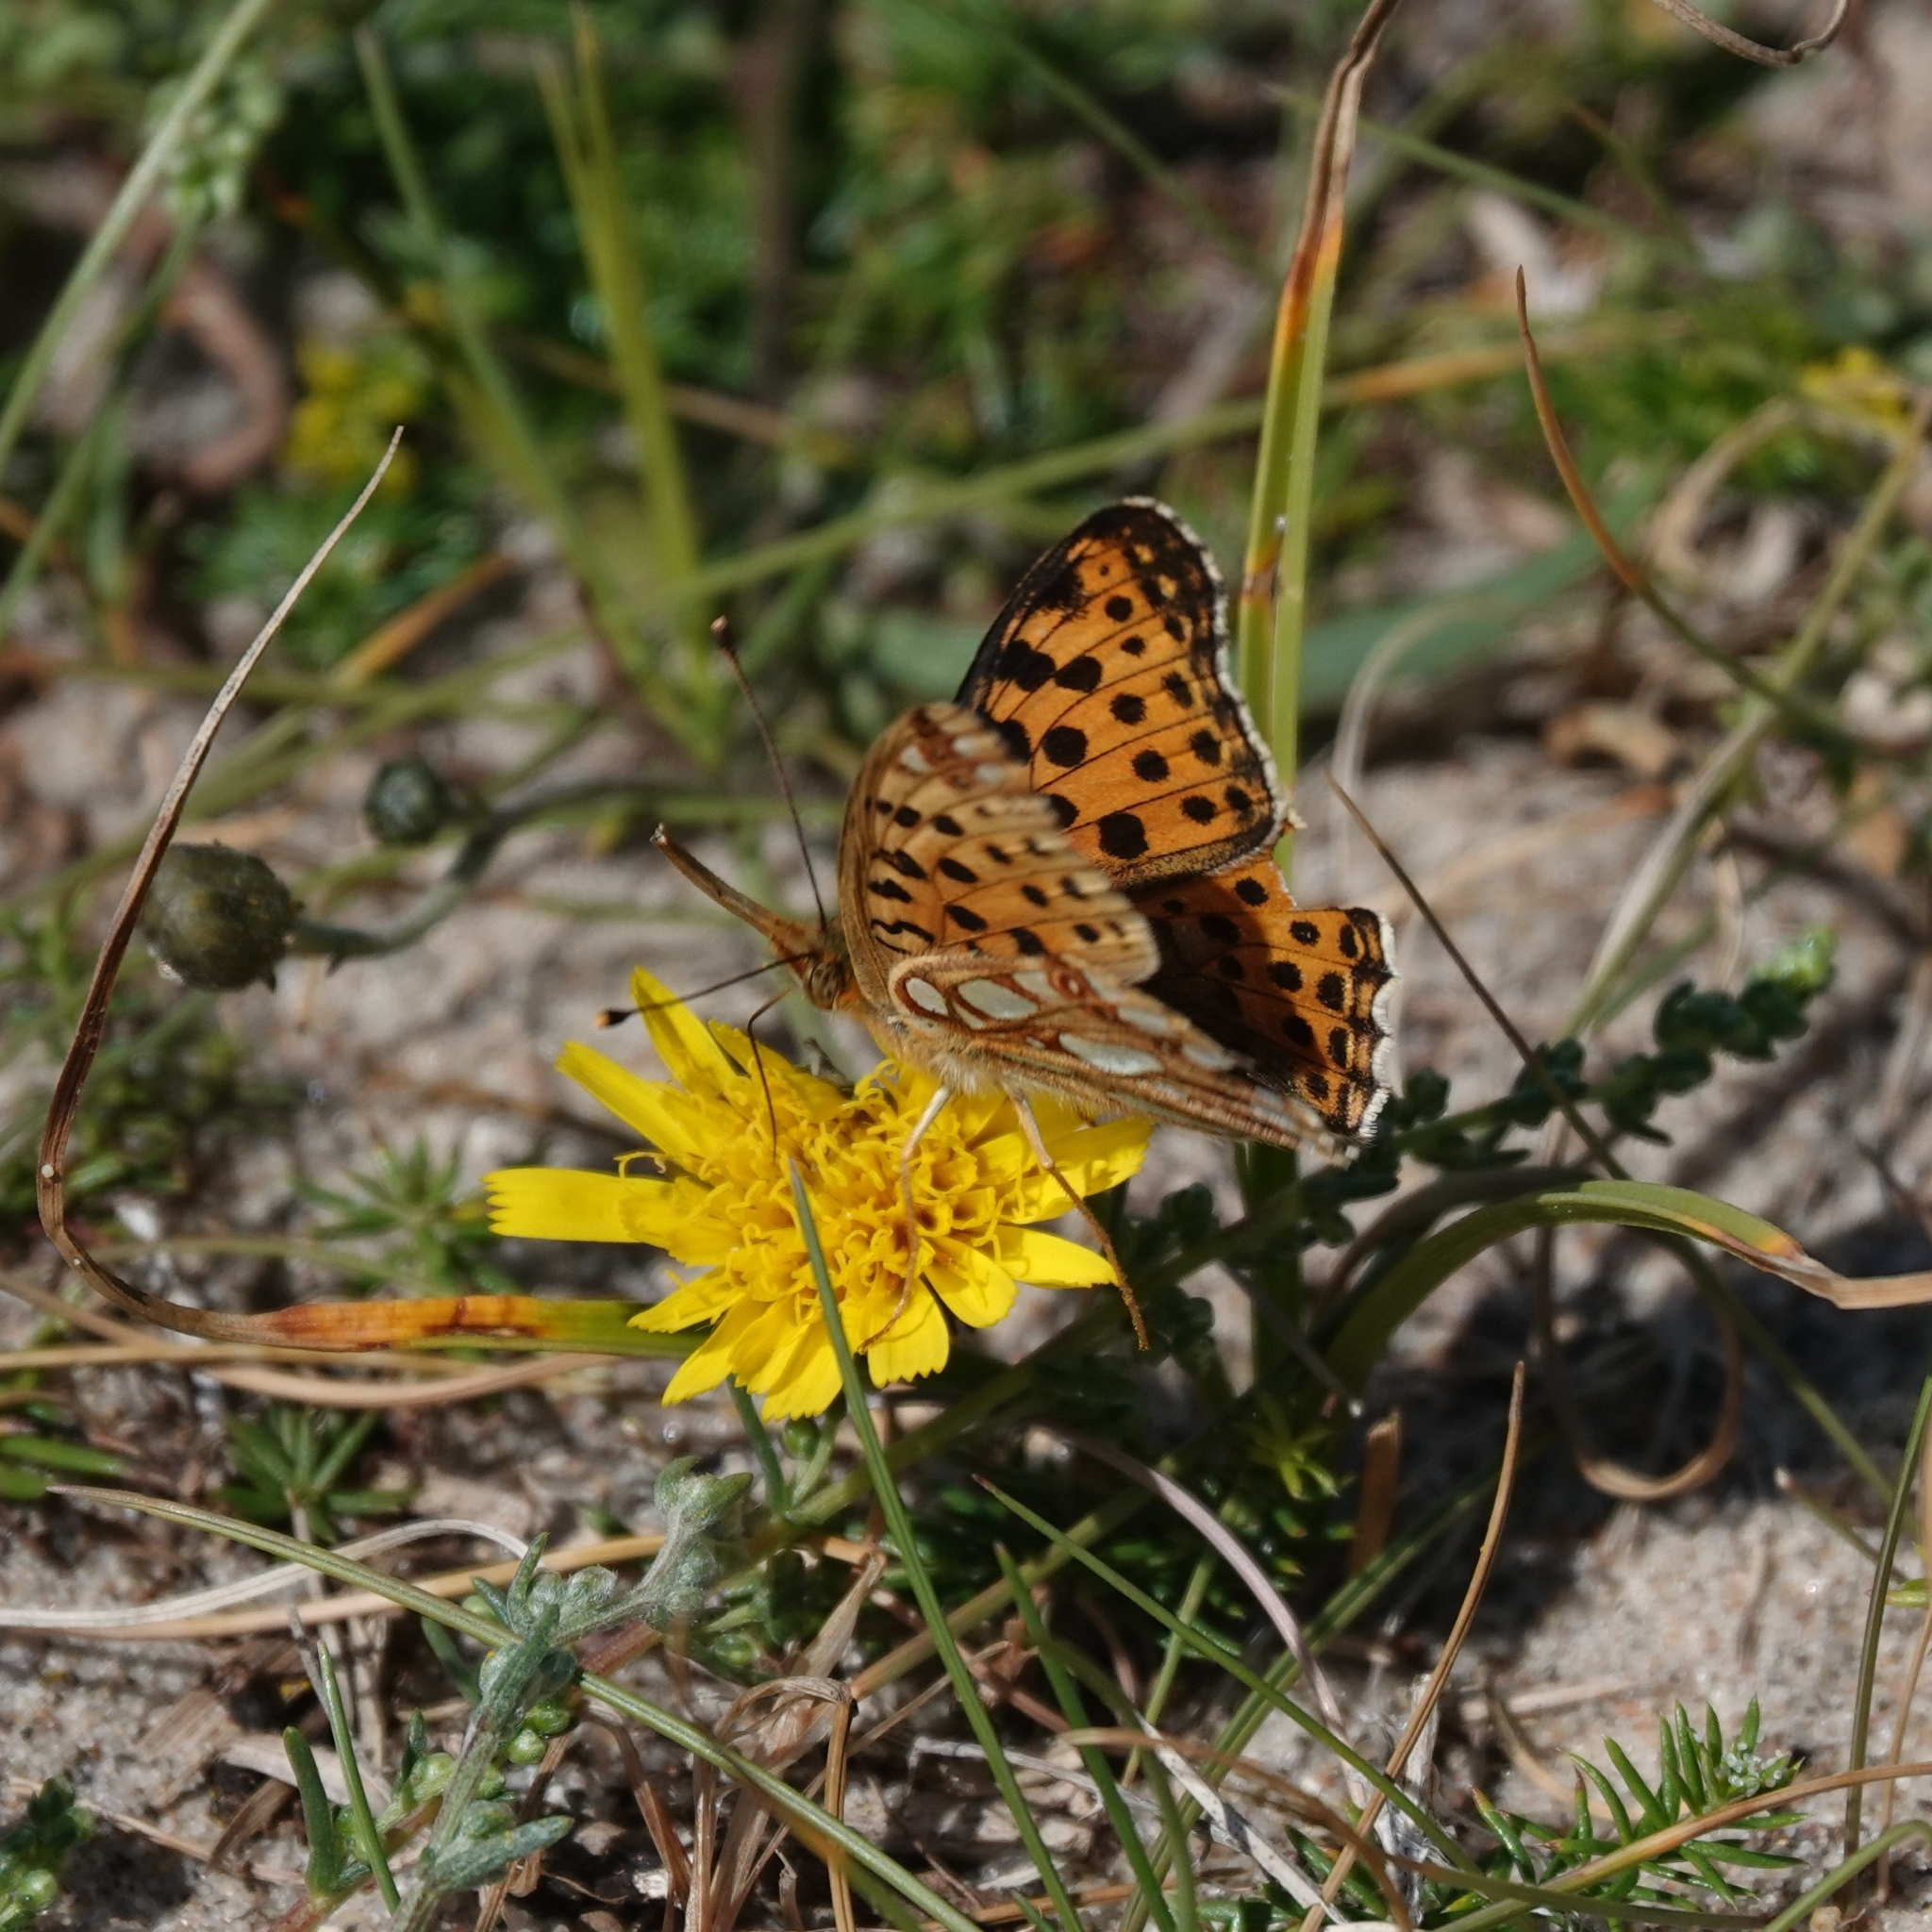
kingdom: Animalia
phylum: Arthropoda
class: Insecta
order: Lepidoptera
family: Nymphalidae
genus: Issoria
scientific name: Issoria lathonia
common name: Queen of spain fritillary
